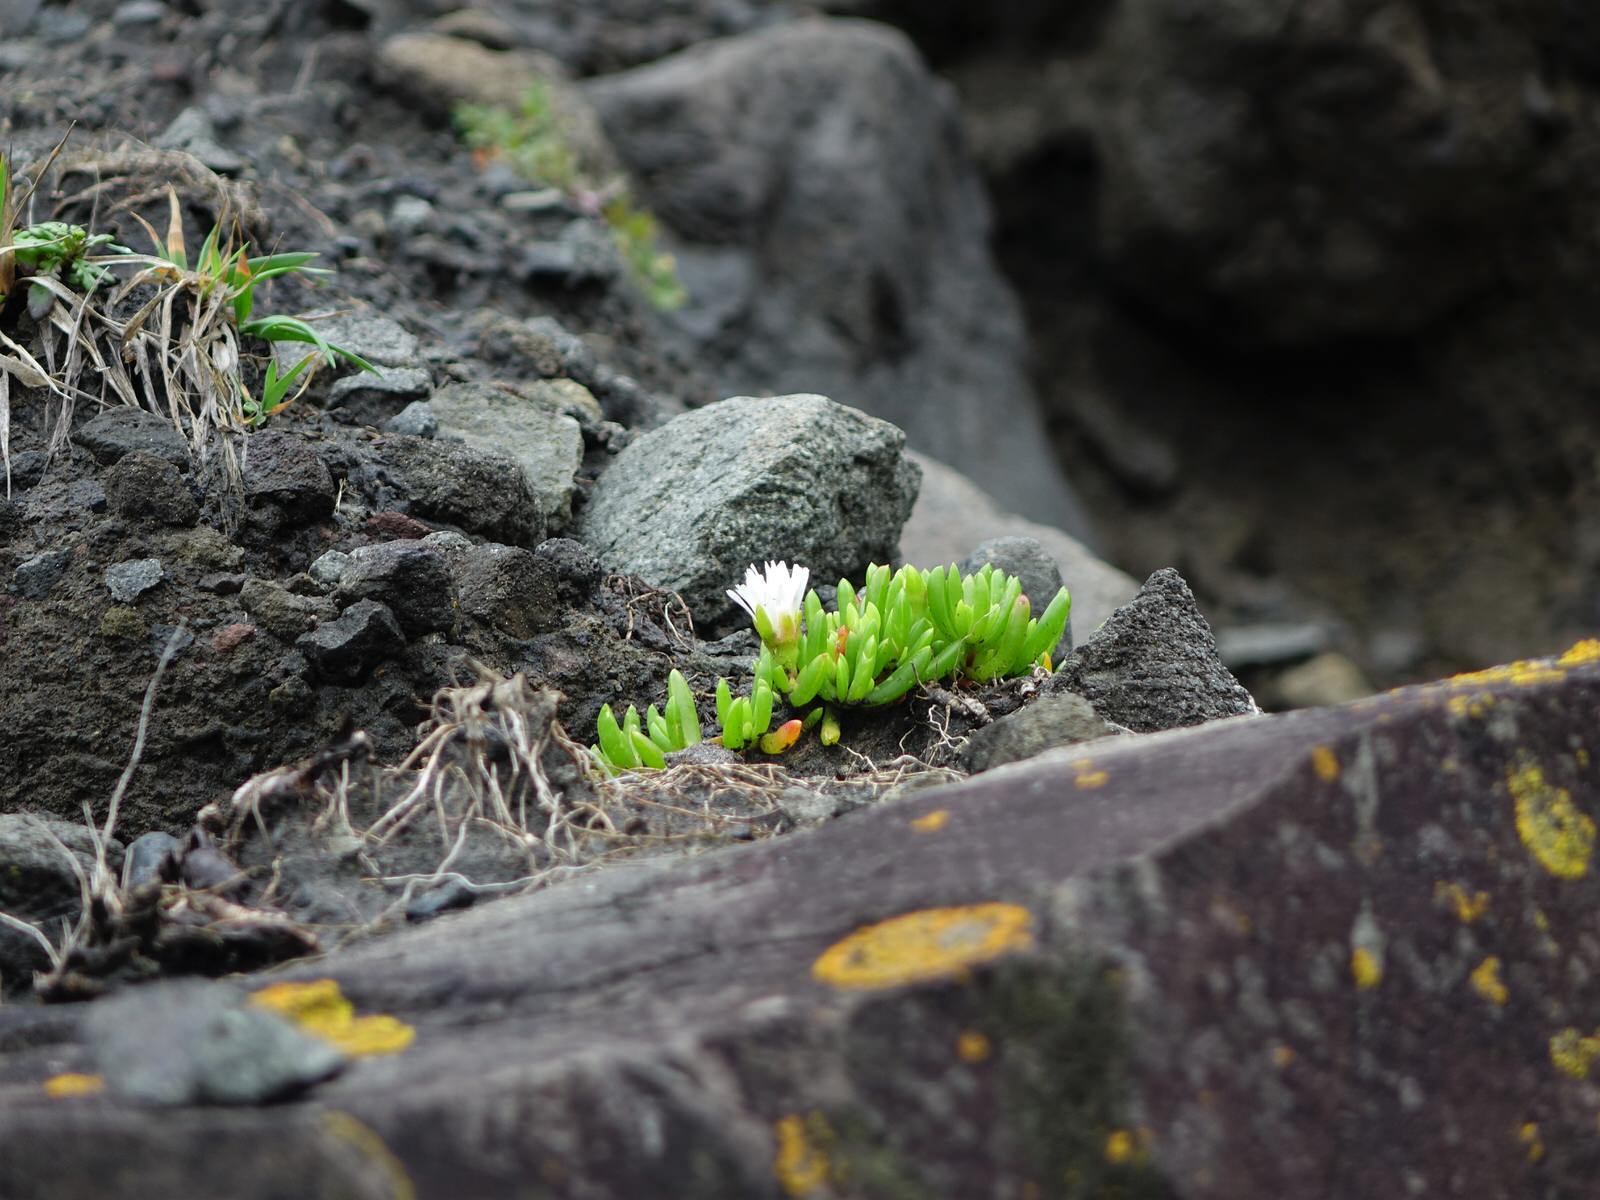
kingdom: Plantae
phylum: Tracheophyta
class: Magnoliopsida
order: Caryophyllales
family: Aizoaceae
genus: Disphyma
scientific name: Disphyma australe
